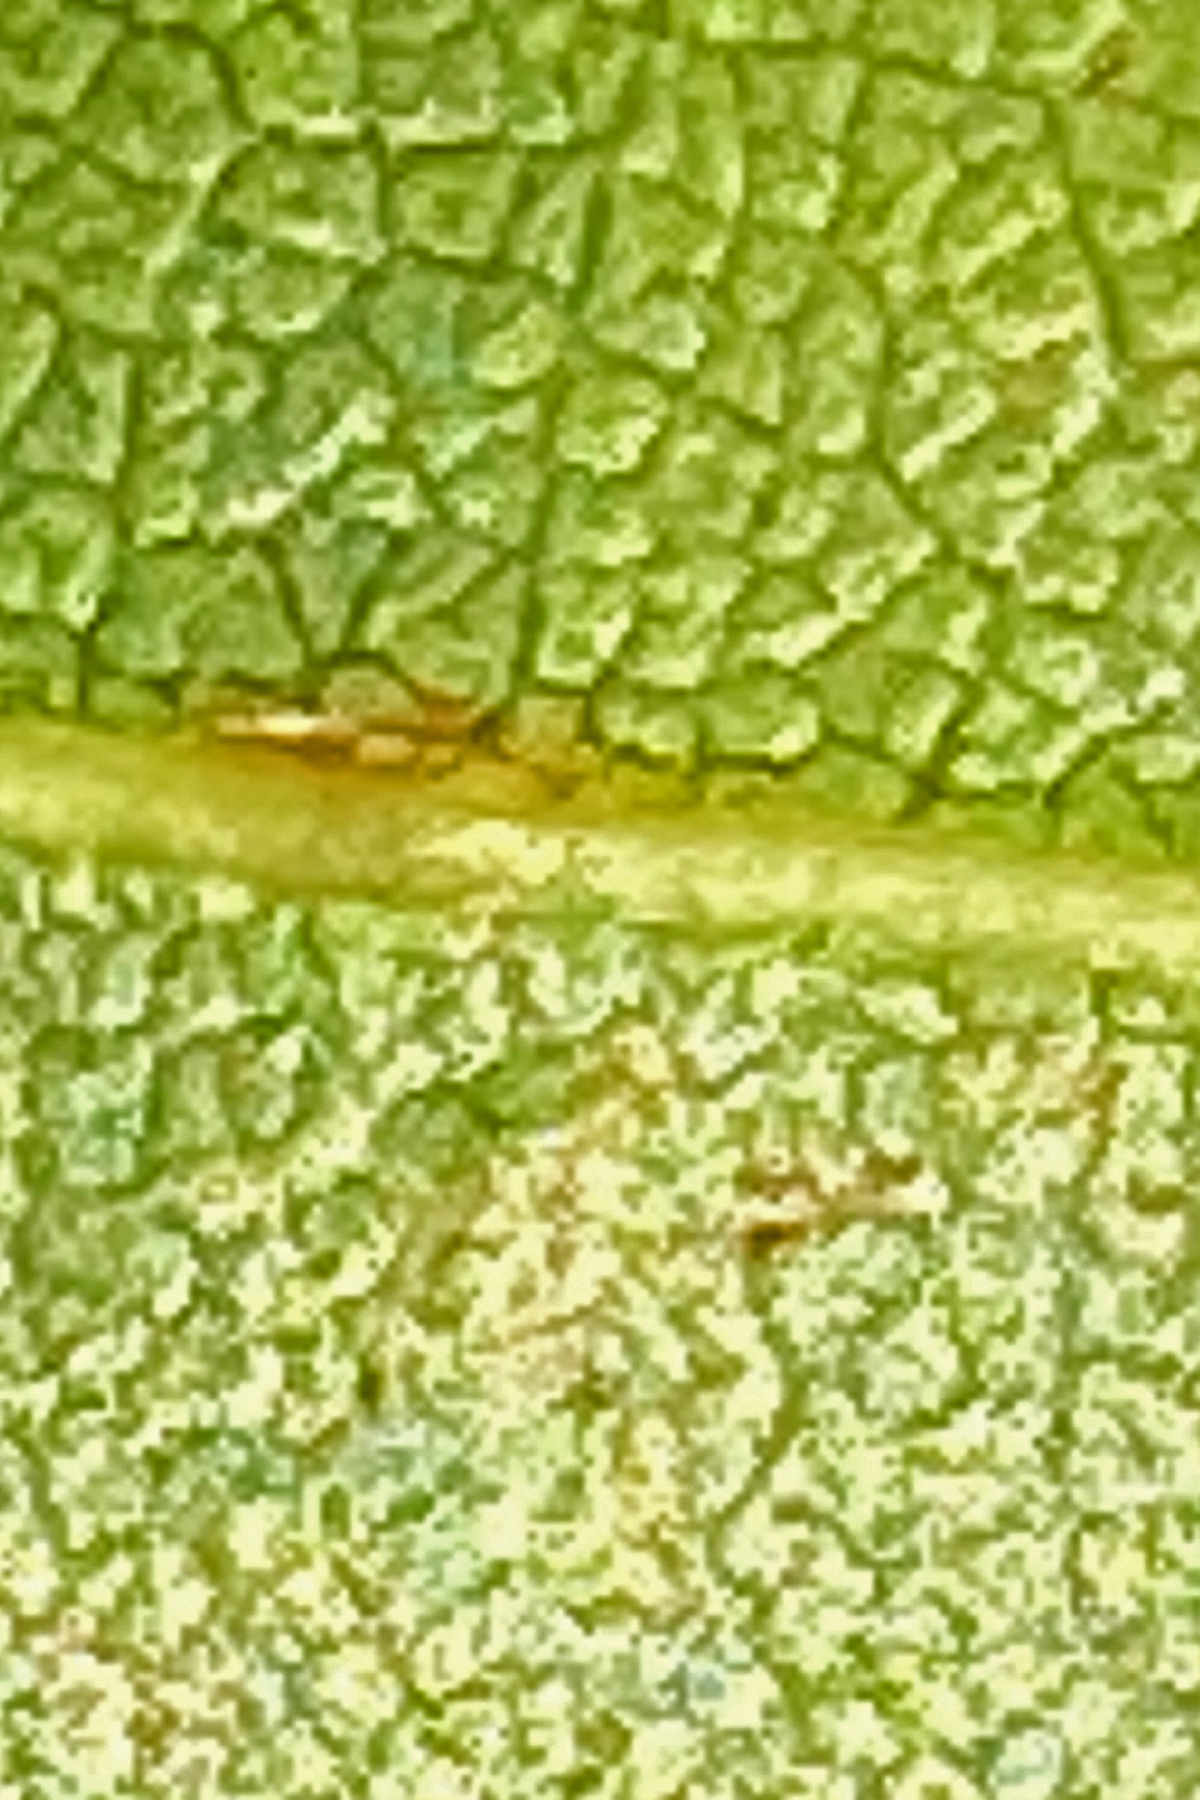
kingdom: Animalia
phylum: Arthropoda
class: Insecta
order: Hymenoptera
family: Cynipidae
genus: Zopheroteras
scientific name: Zopheroteras
